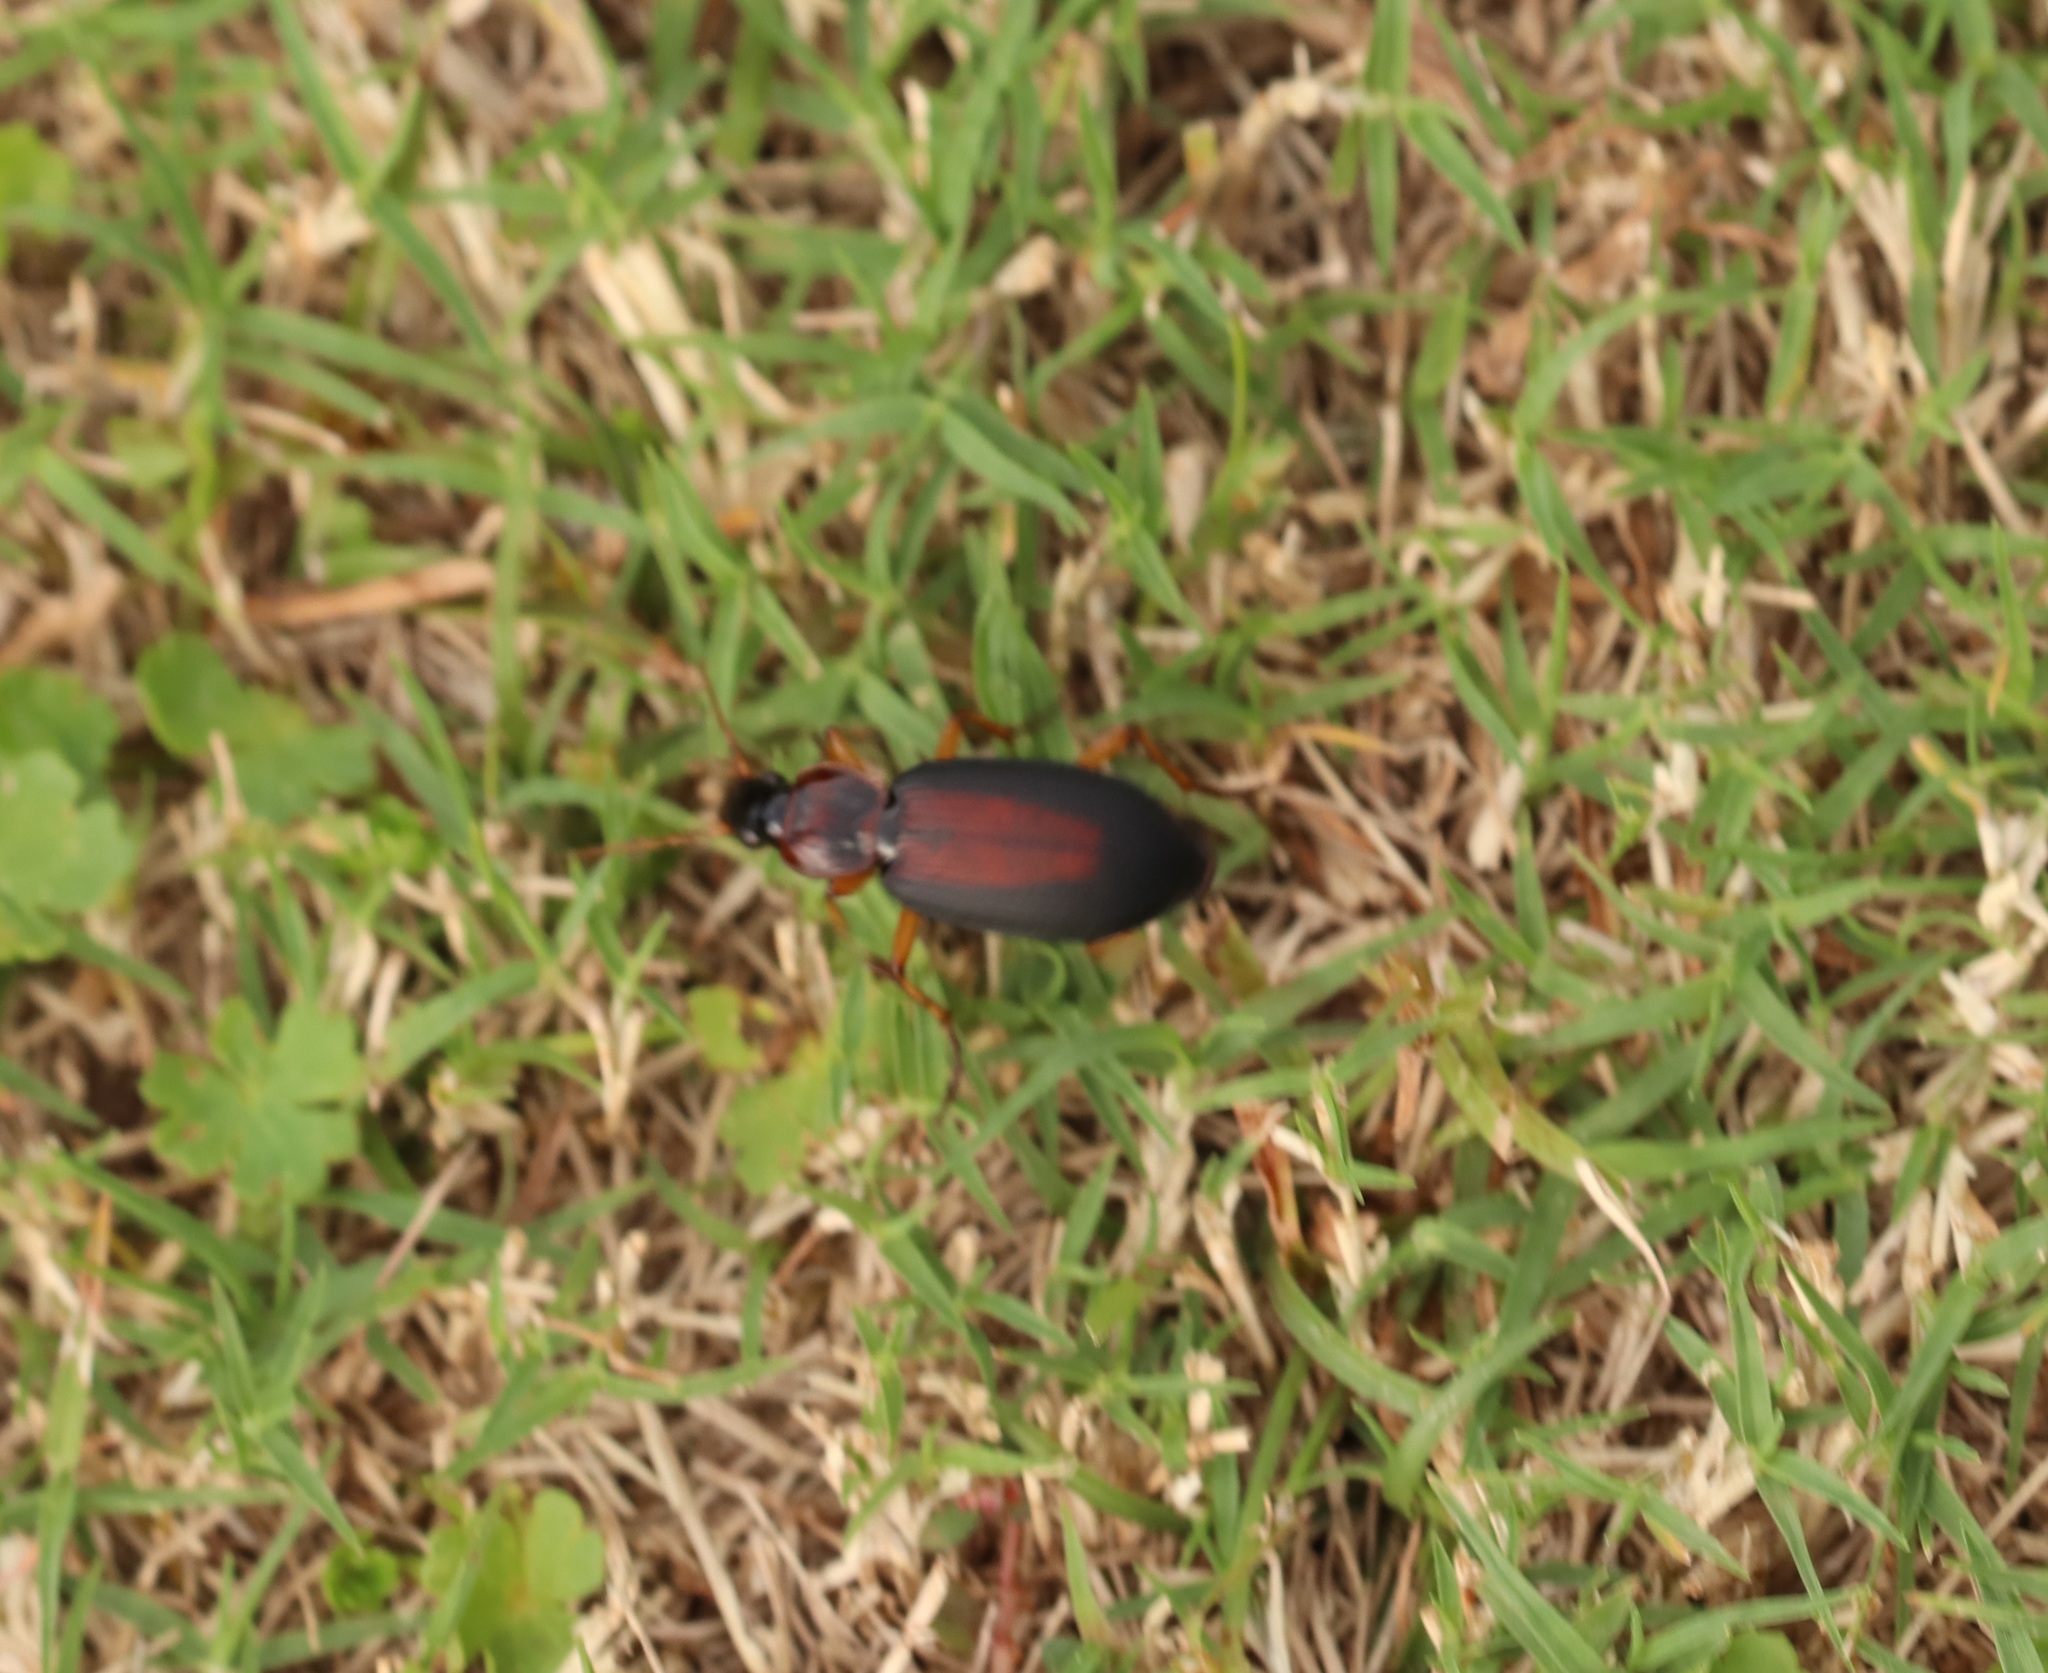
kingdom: Animalia
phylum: Arthropoda
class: Insecta
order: Coleoptera
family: Carabidae
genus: Dolichus
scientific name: Dolichus halensis
